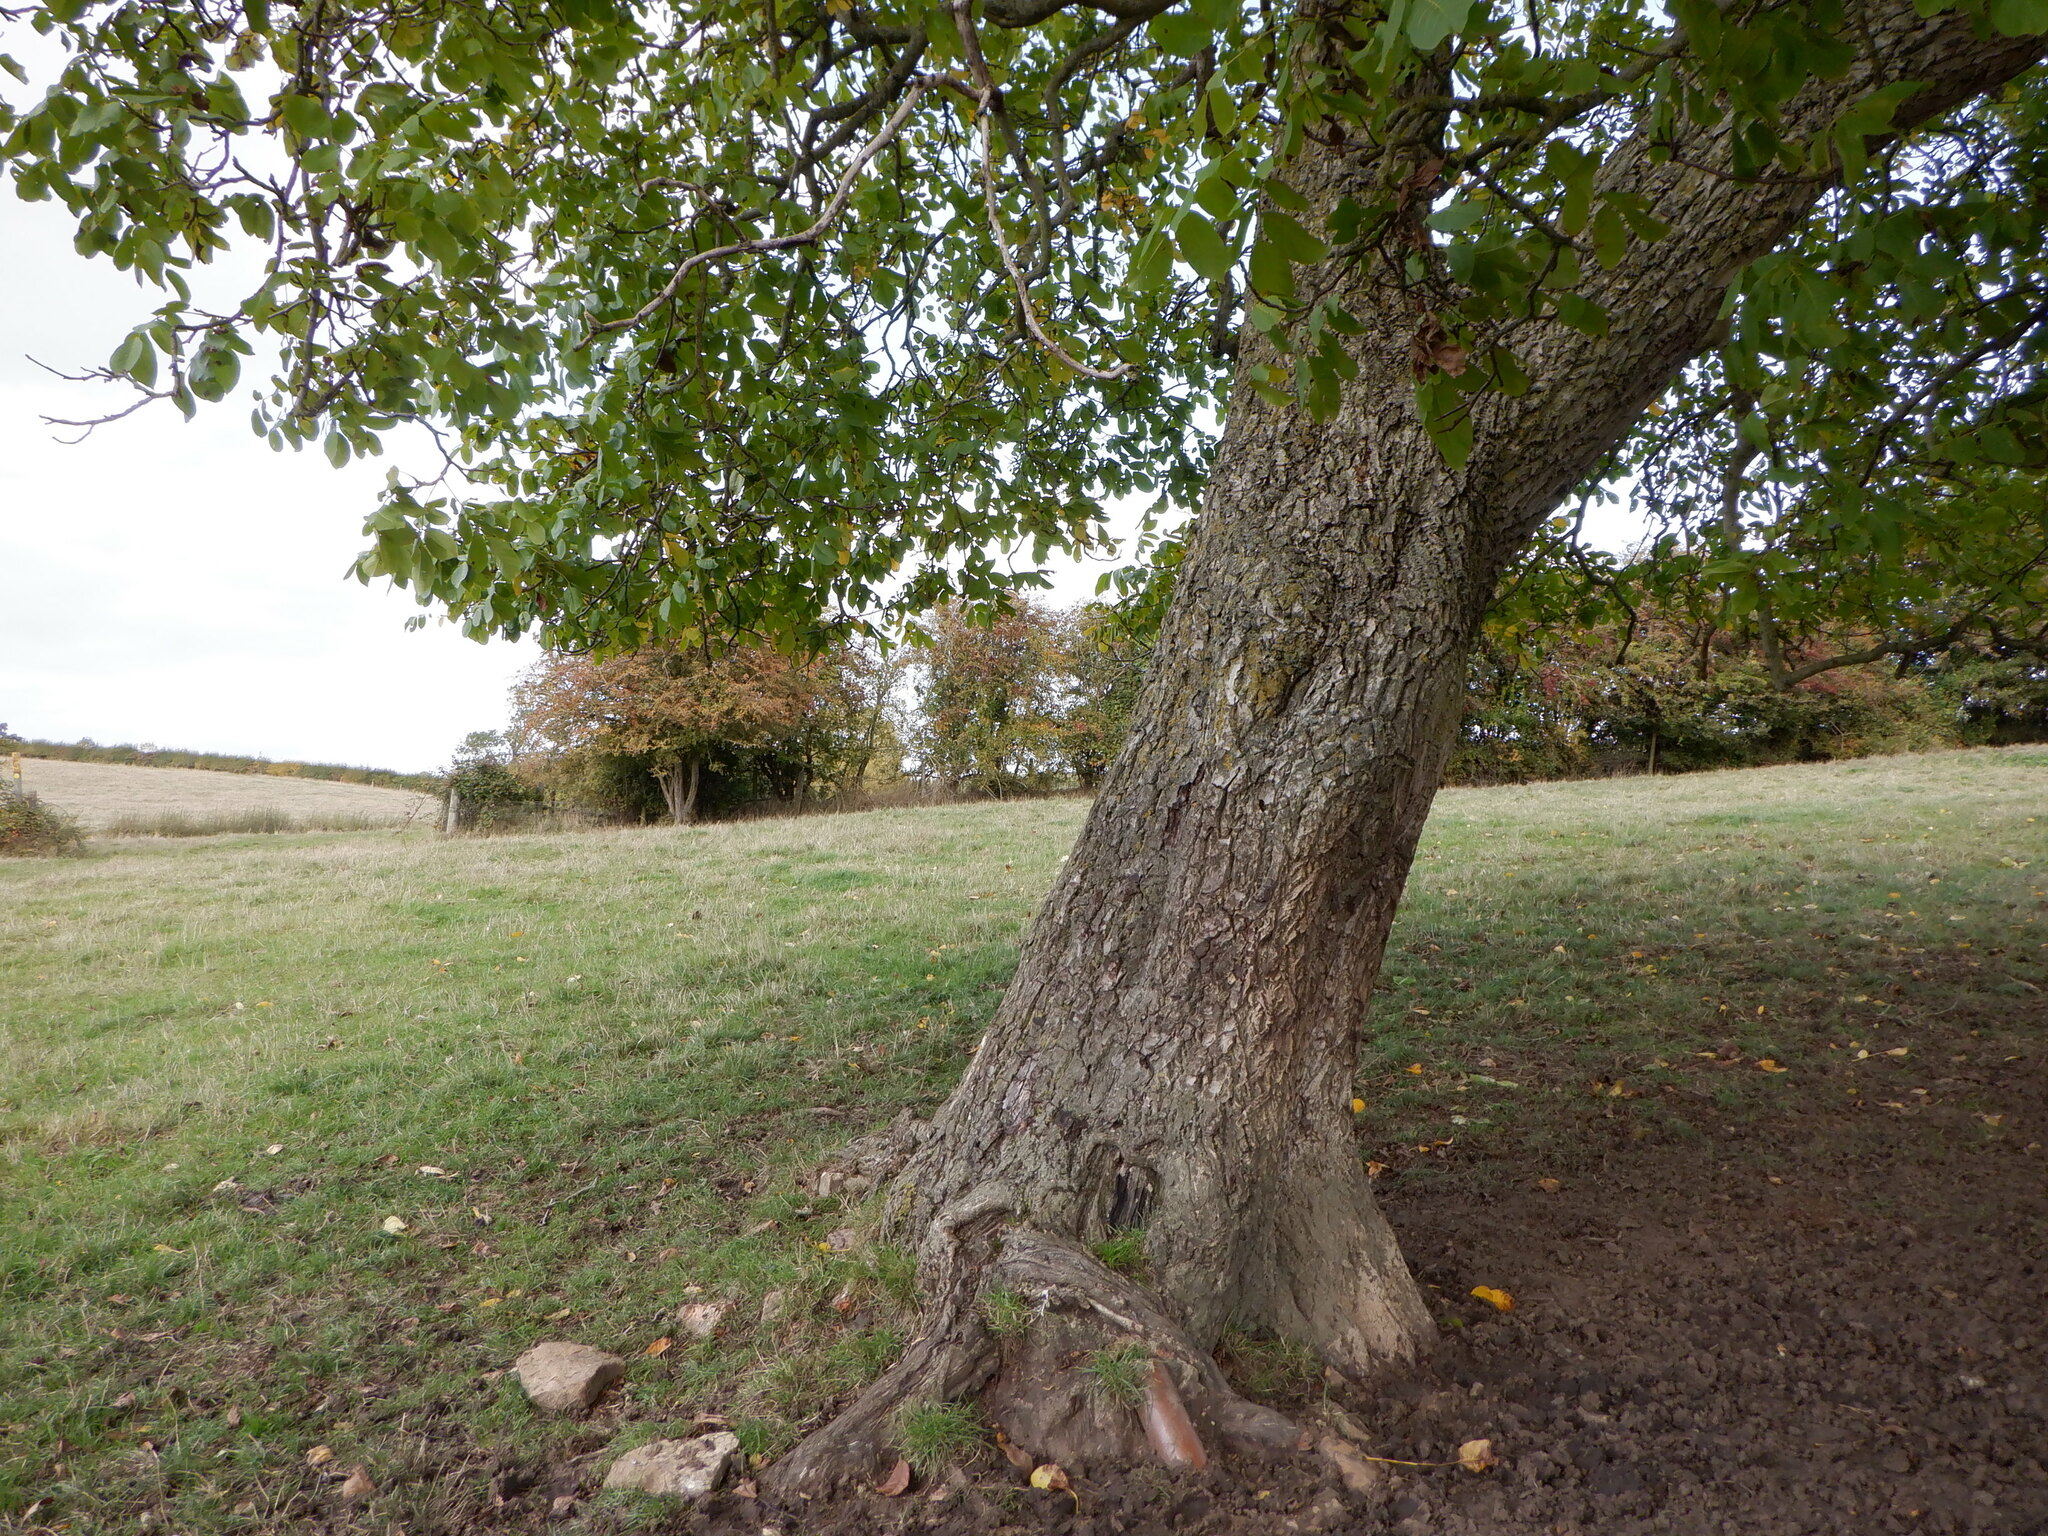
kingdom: Plantae
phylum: Tracheophyta
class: Magnoliopsida
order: Fagales
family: Juglandaceae
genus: Juglans
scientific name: Juglans regia
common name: Walnut
